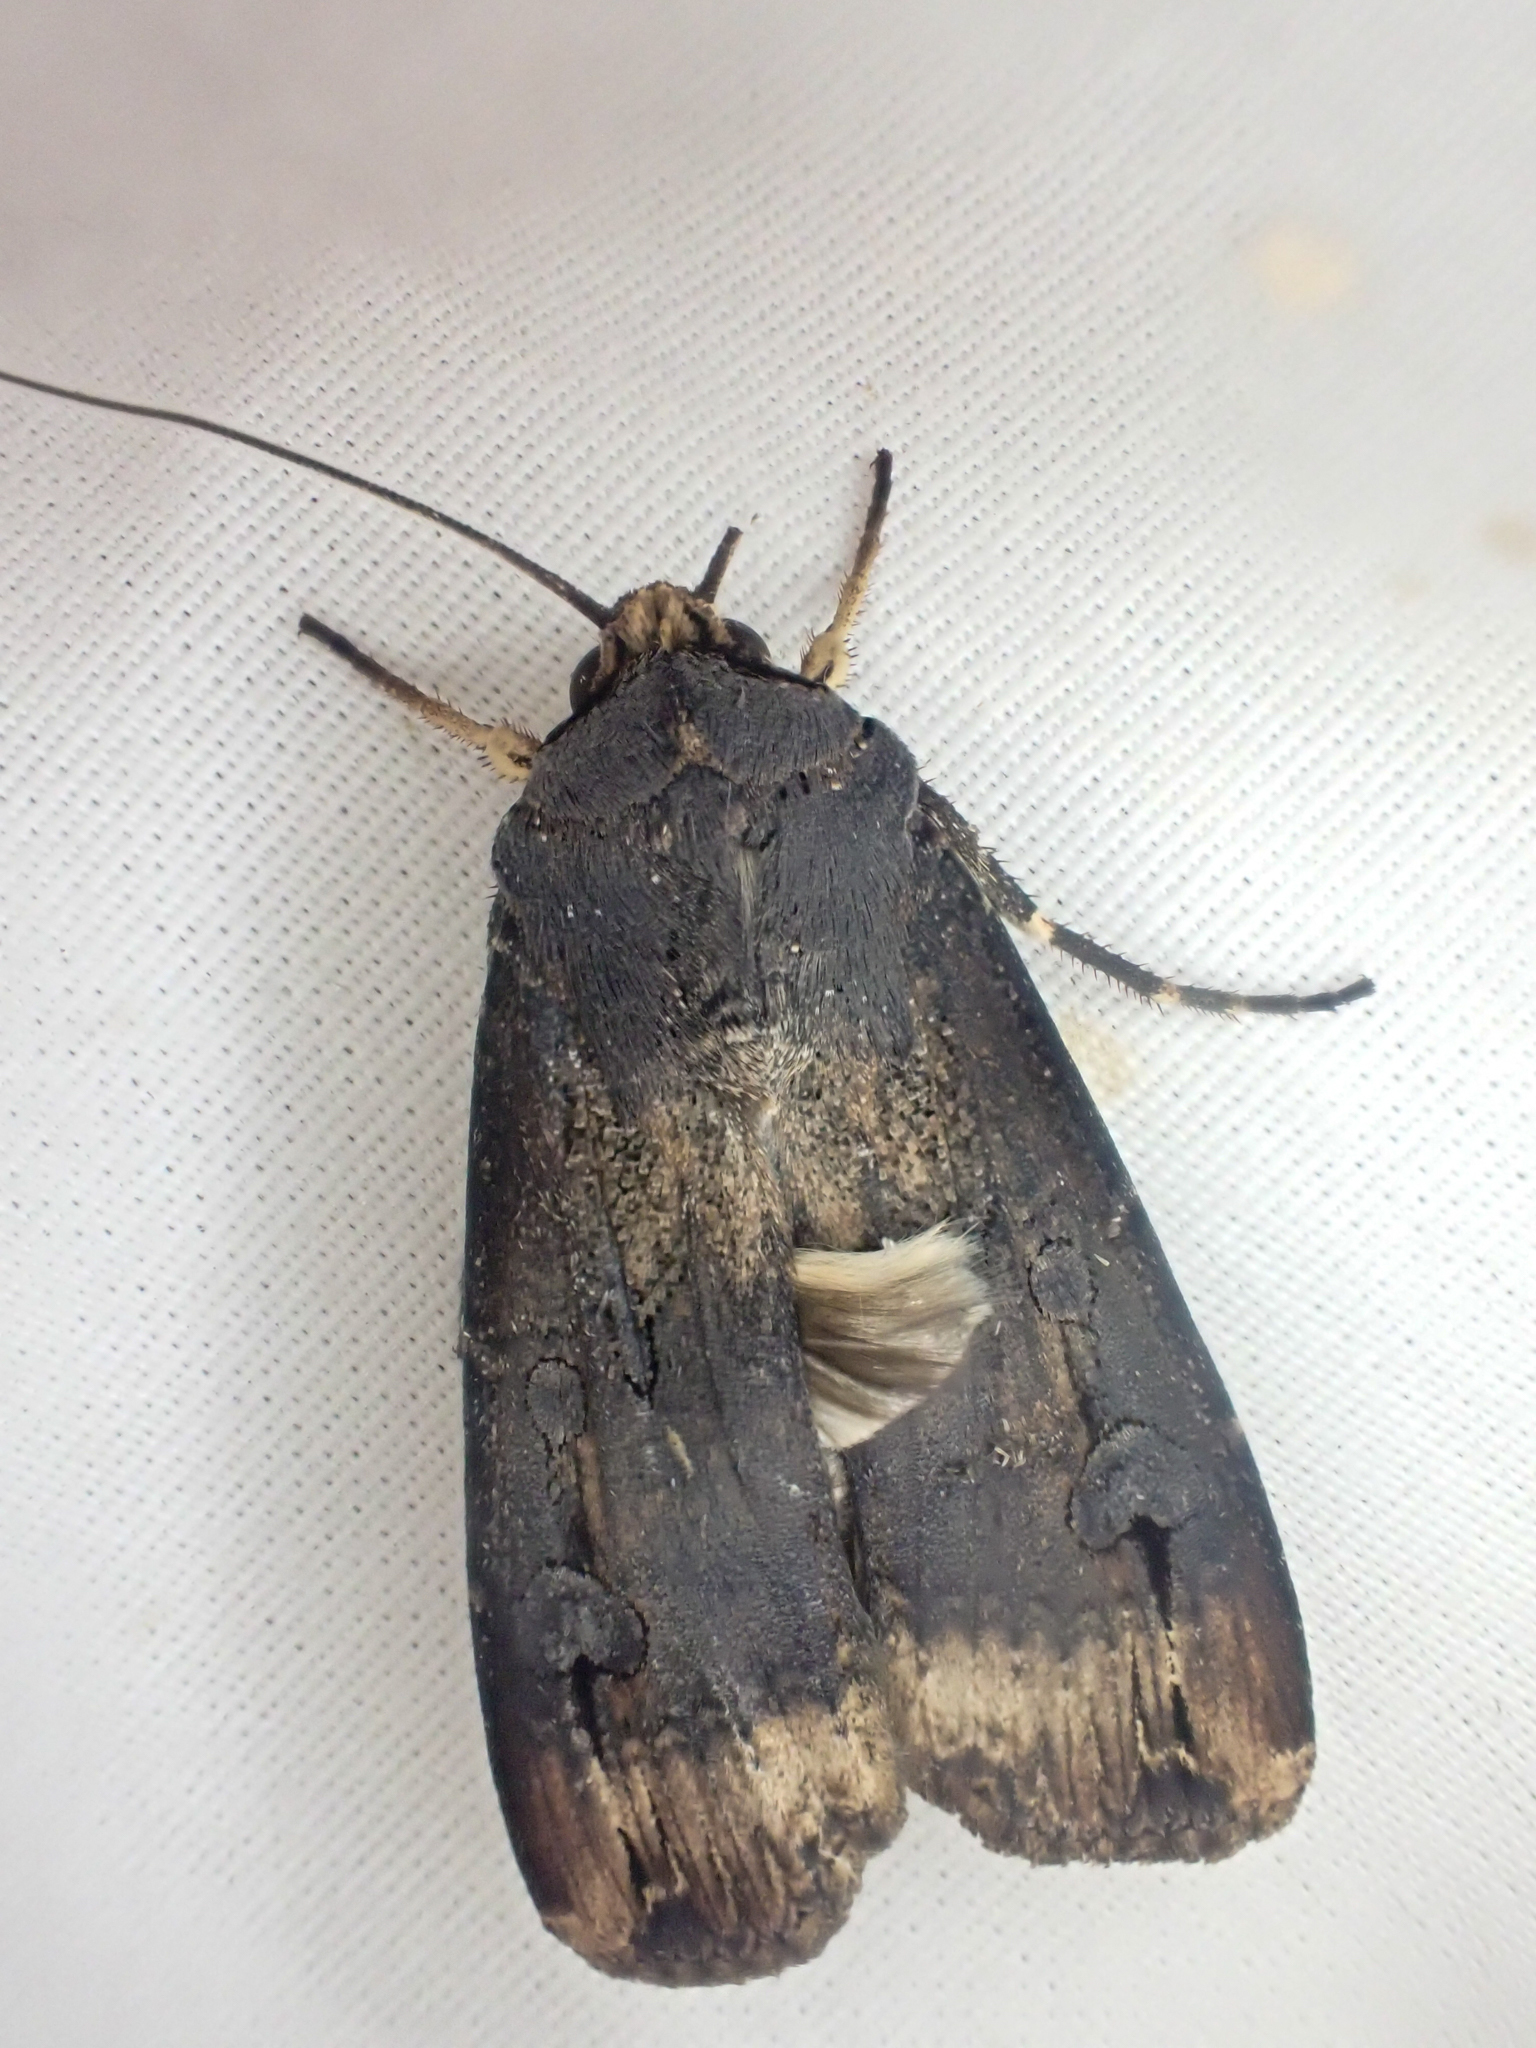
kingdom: Animalia
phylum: Arthropoda
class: Insecta
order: Lepidoptera
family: Noctuidae
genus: Agrotis
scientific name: Agrotis ipsilon
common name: Dark sword-grass
